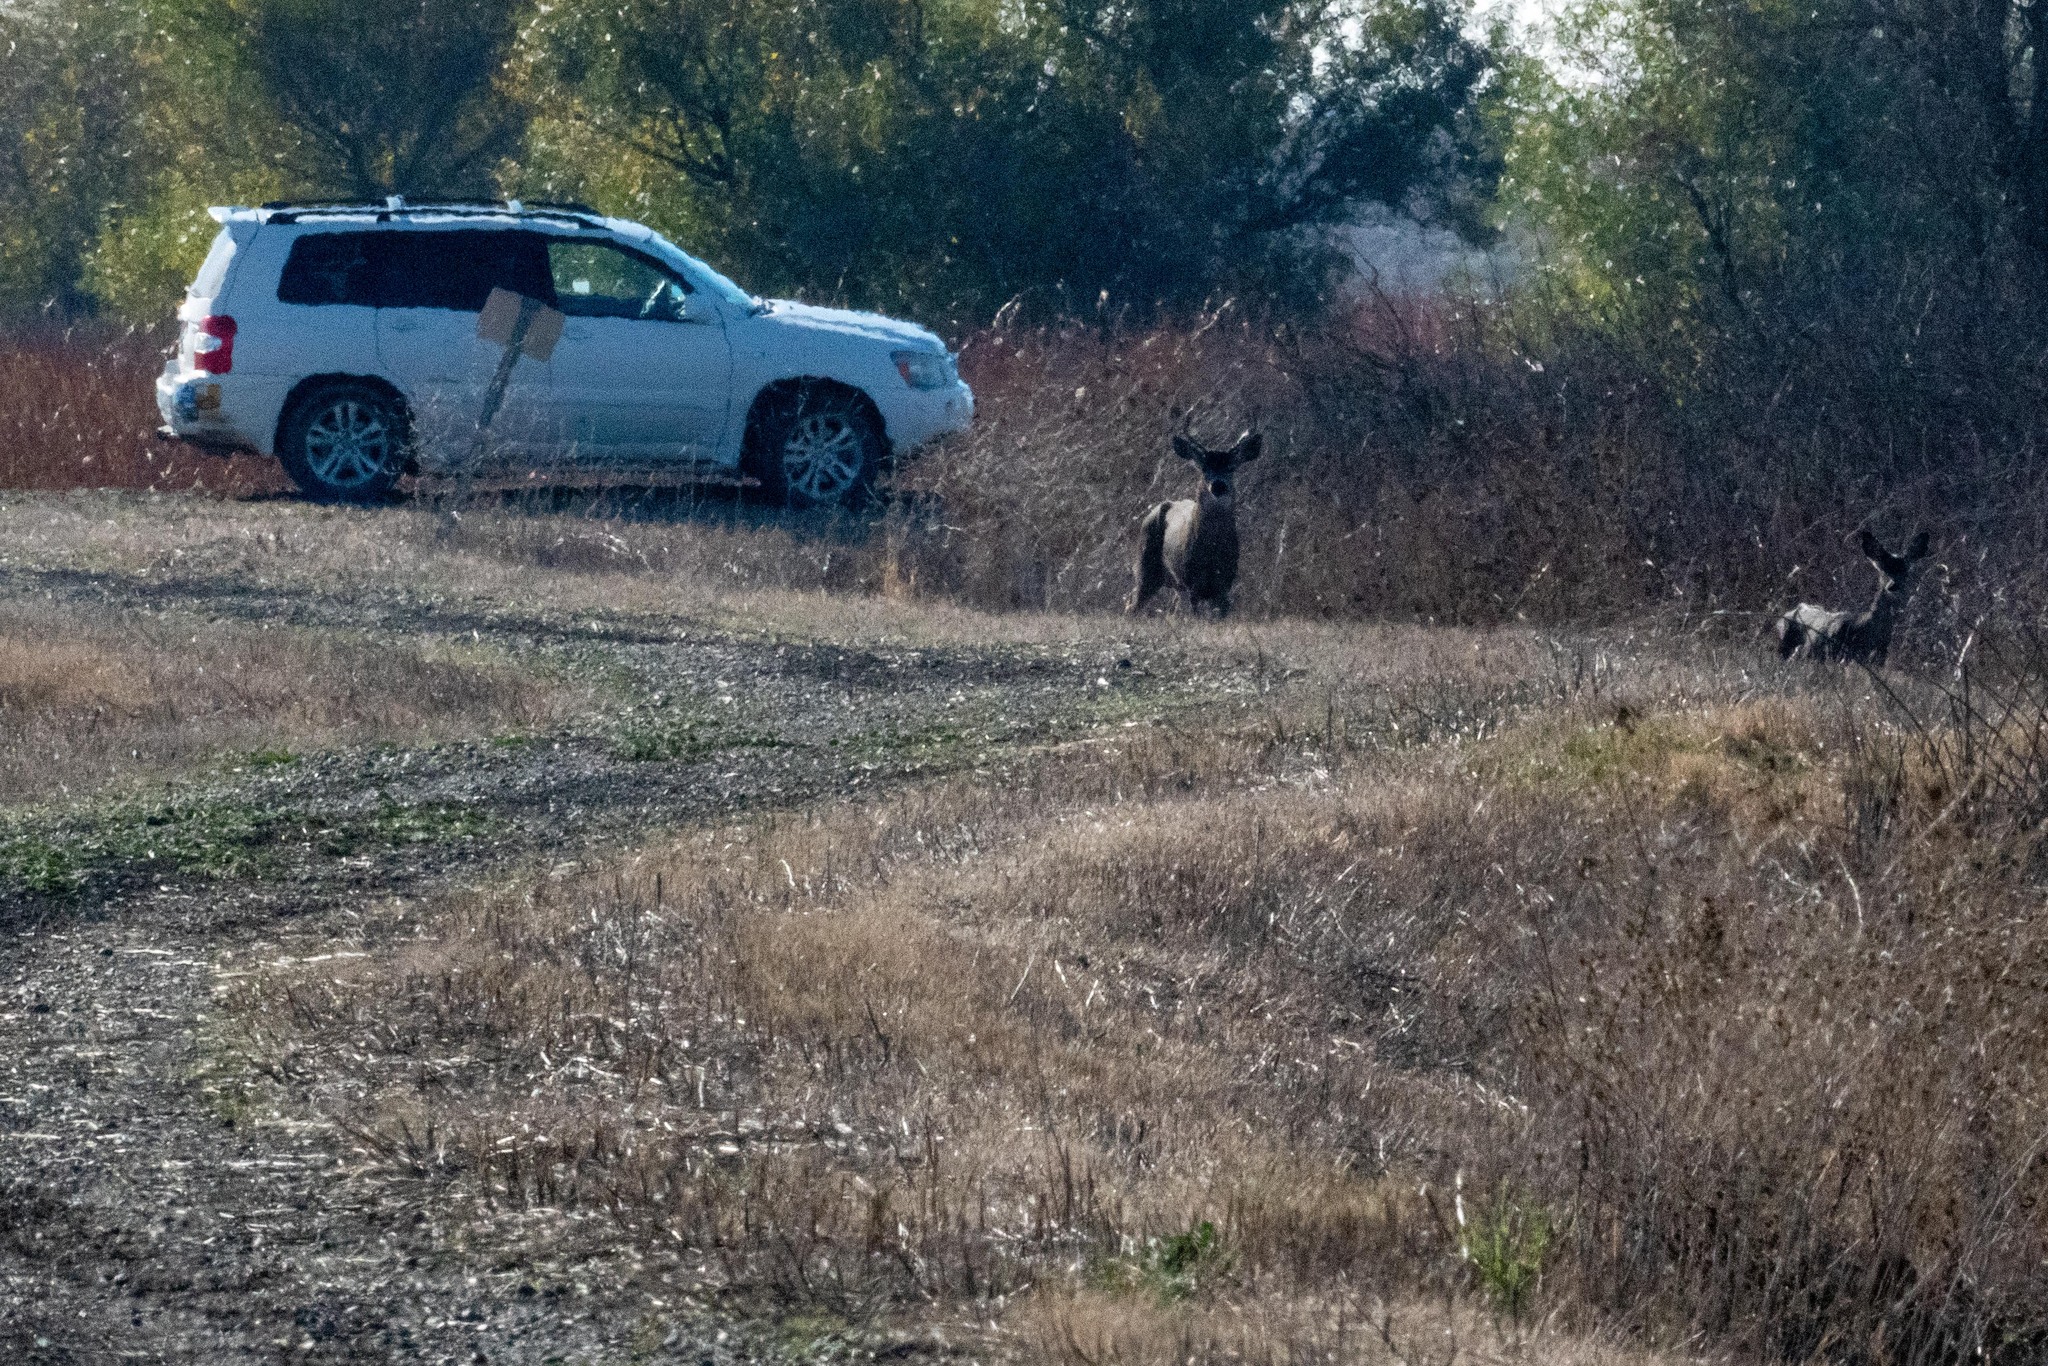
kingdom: Animalia
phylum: Chordata
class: Mammalia
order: Artiodactyla
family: Cervidae
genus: Odocoileus
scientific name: Odocoileus hemionus
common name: Mule deer
